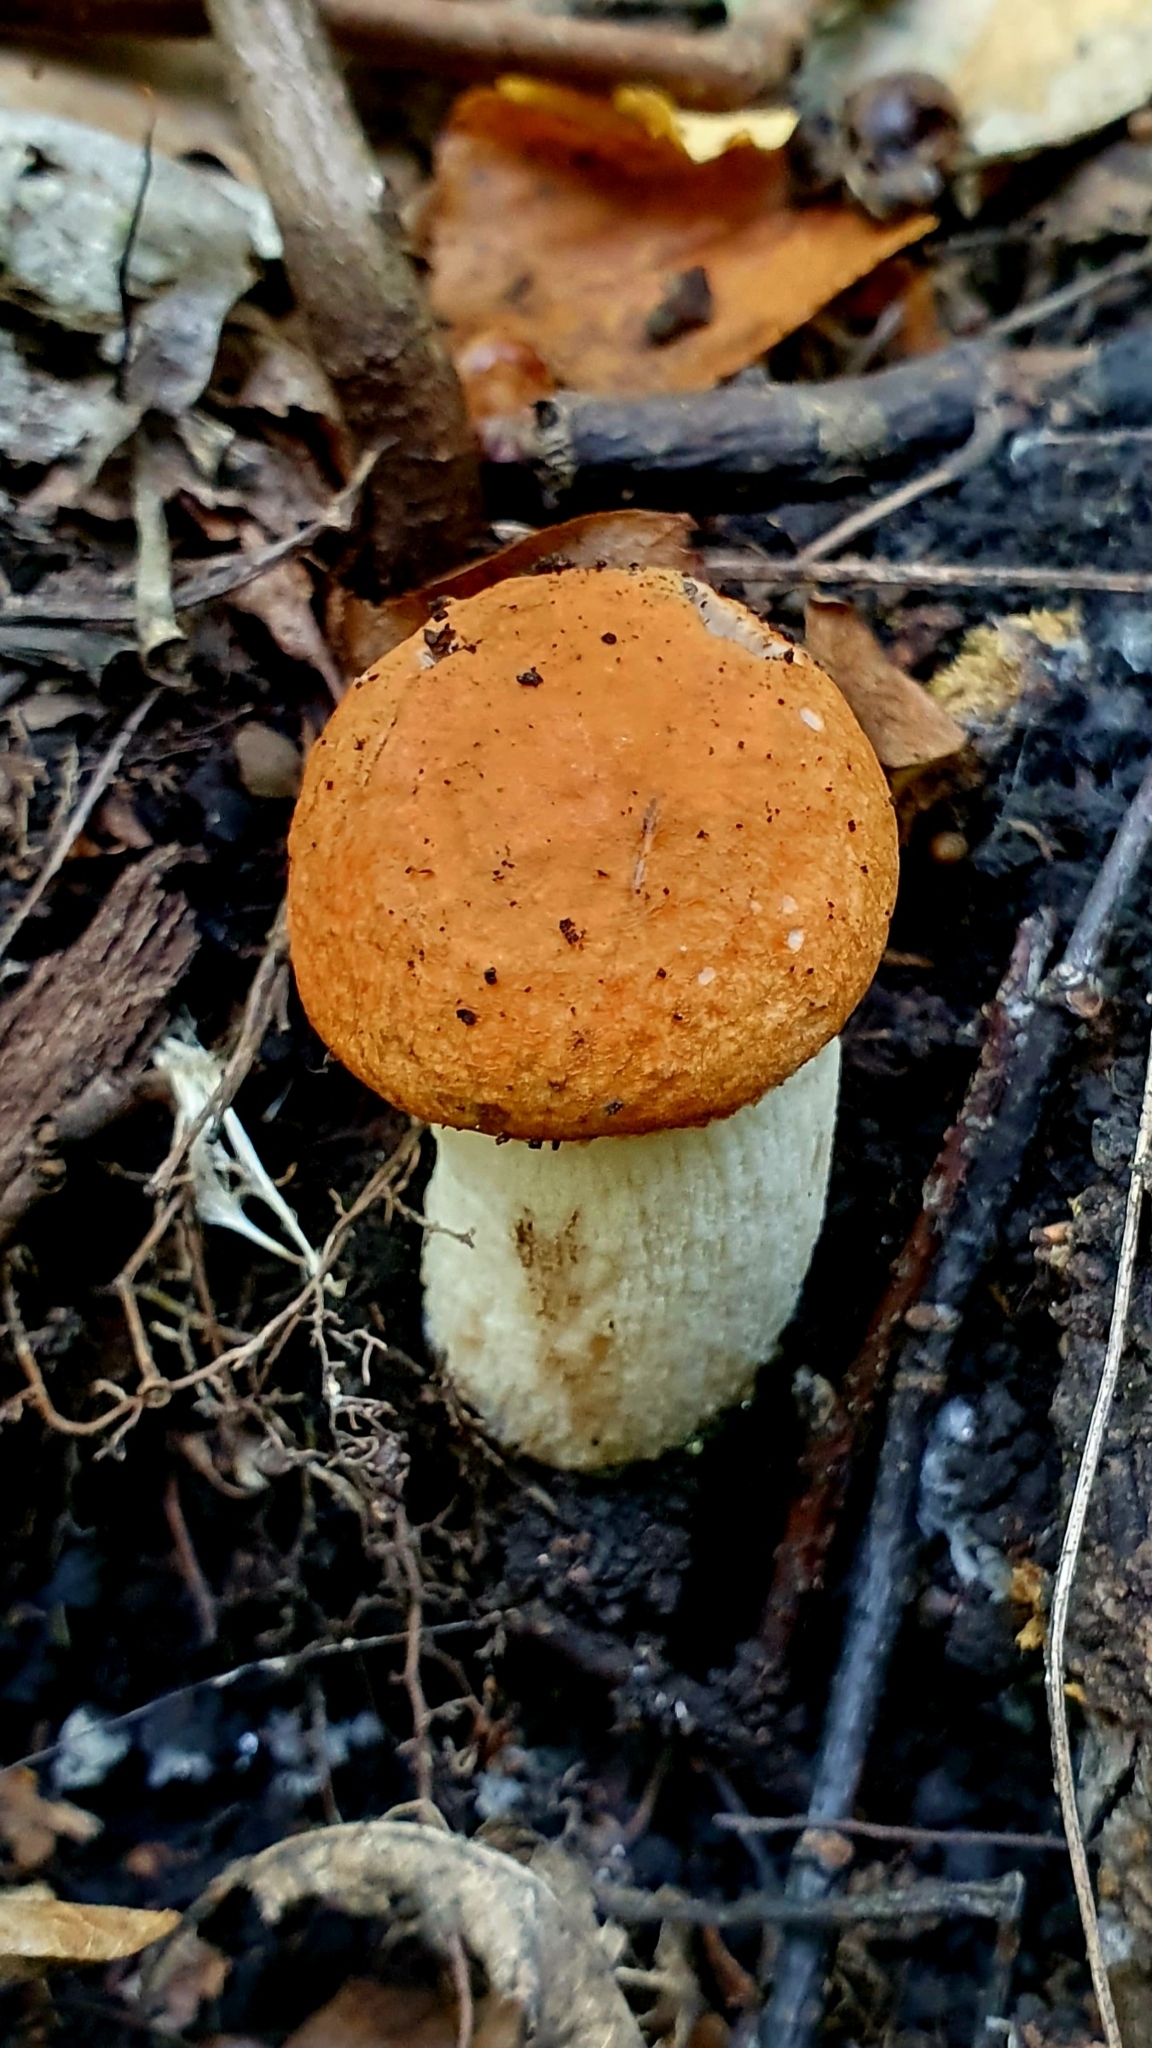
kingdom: Fungi
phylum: Basidiomycota
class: Agaricomycetes
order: Boletales
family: Boletaceae
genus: Leccinum
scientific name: Leccinum albostipitatum
